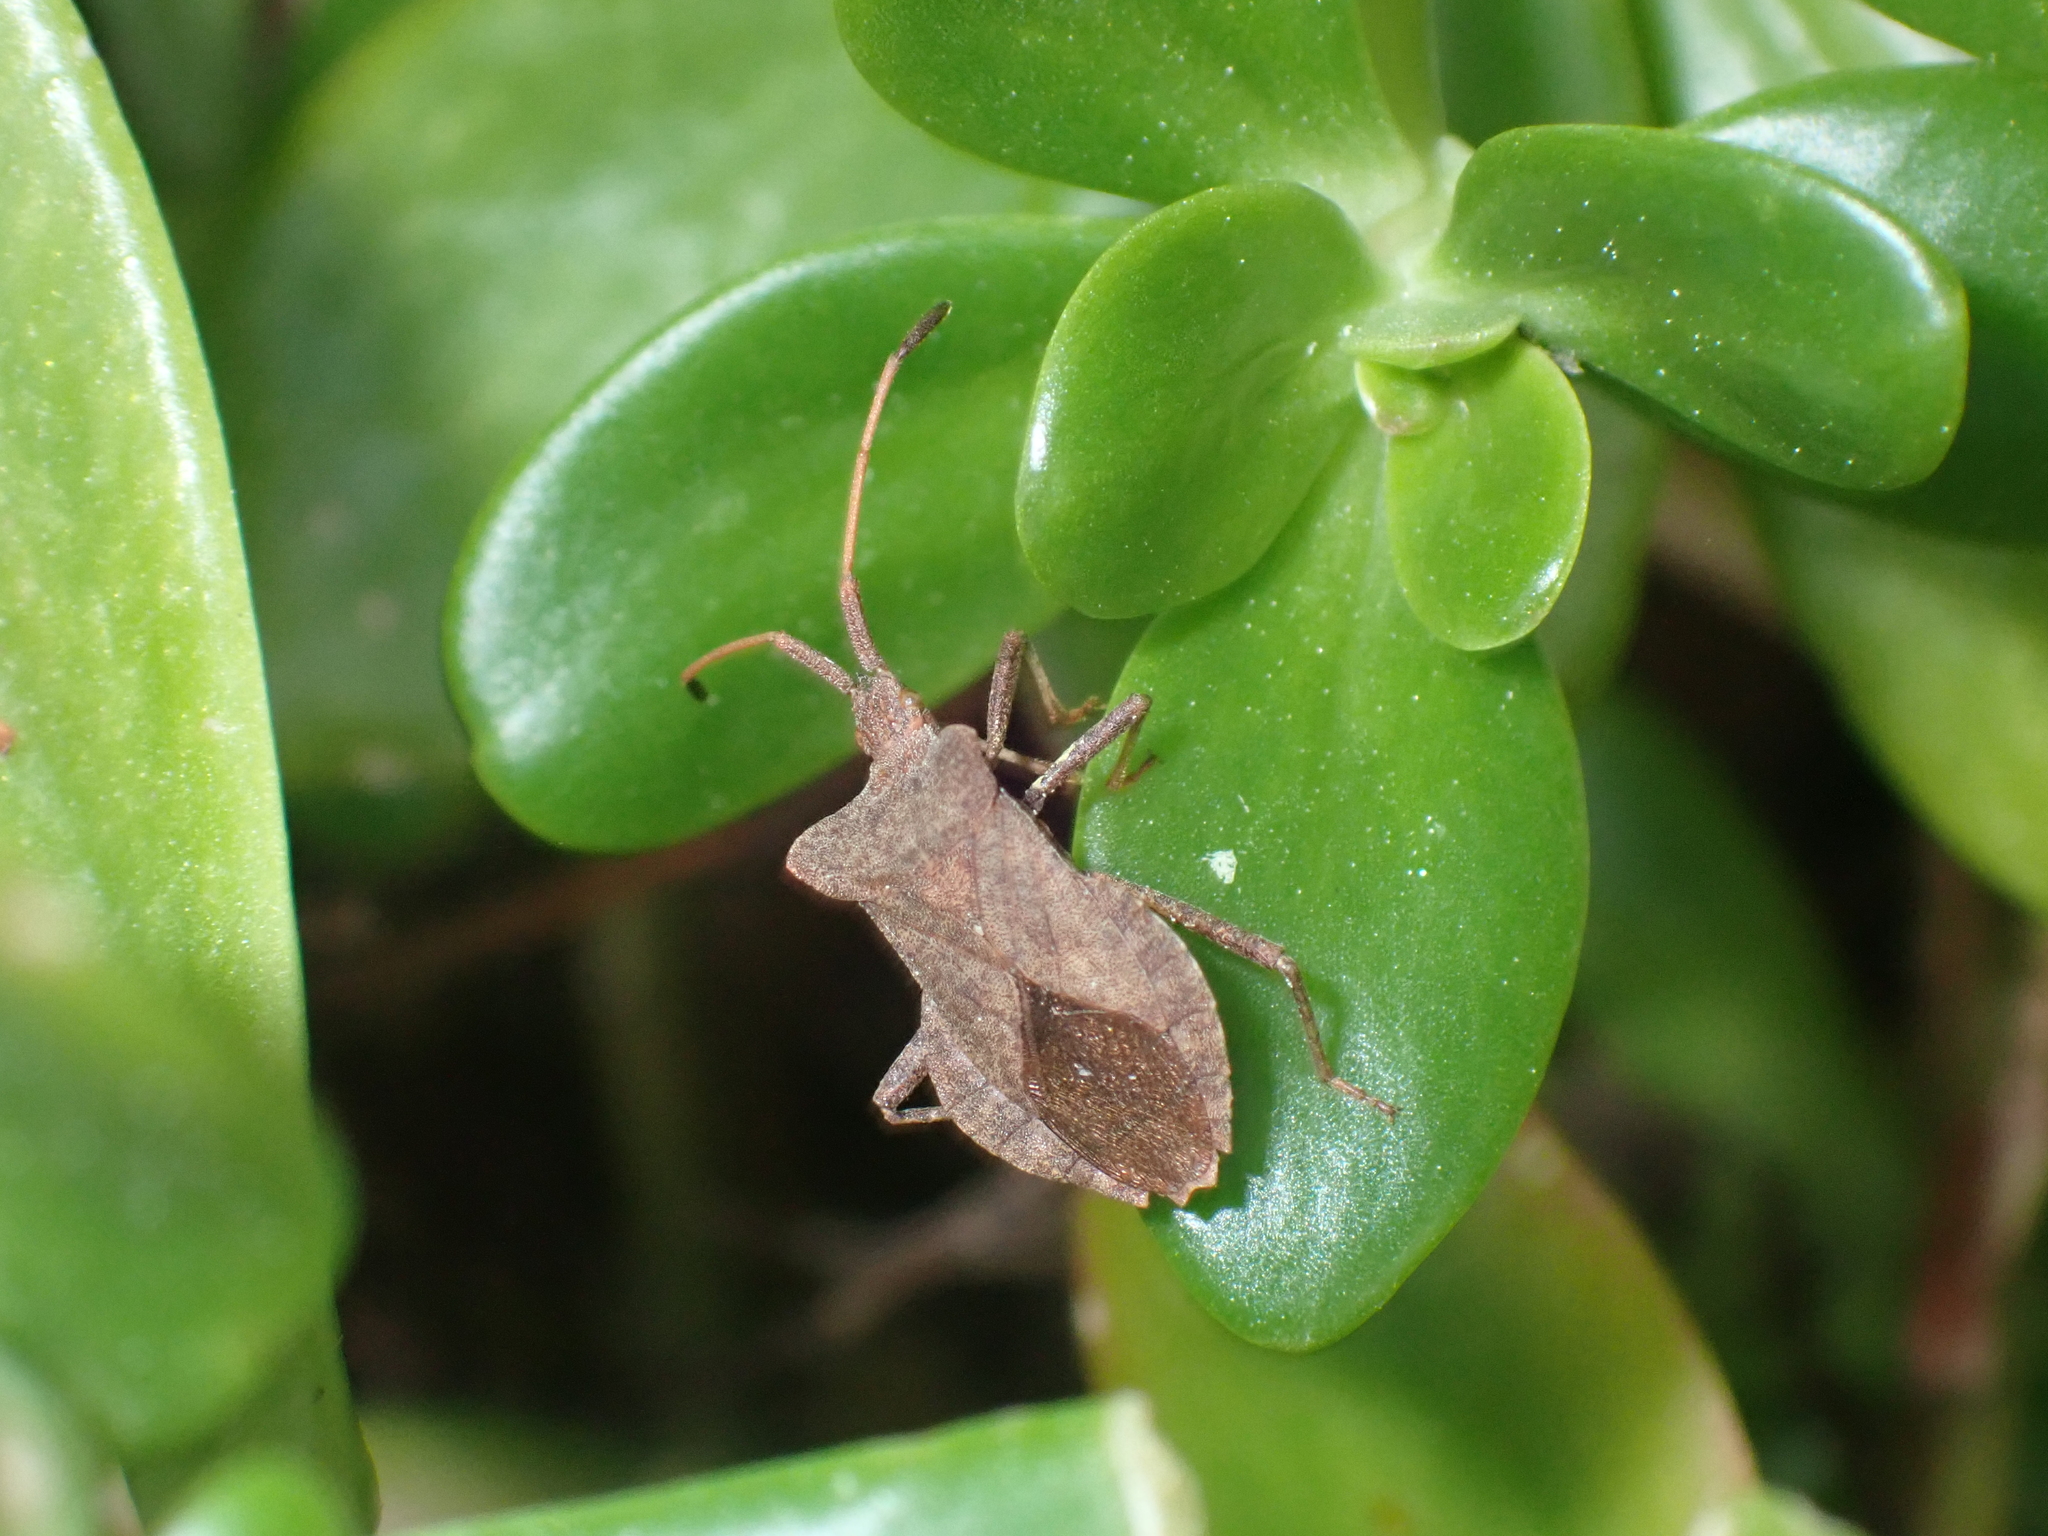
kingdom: Animalia
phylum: Arthropoda
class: Insecta
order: Hemiptera
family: Coreidae
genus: Coreus
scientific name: Coreus marginatus
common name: Dock bug
